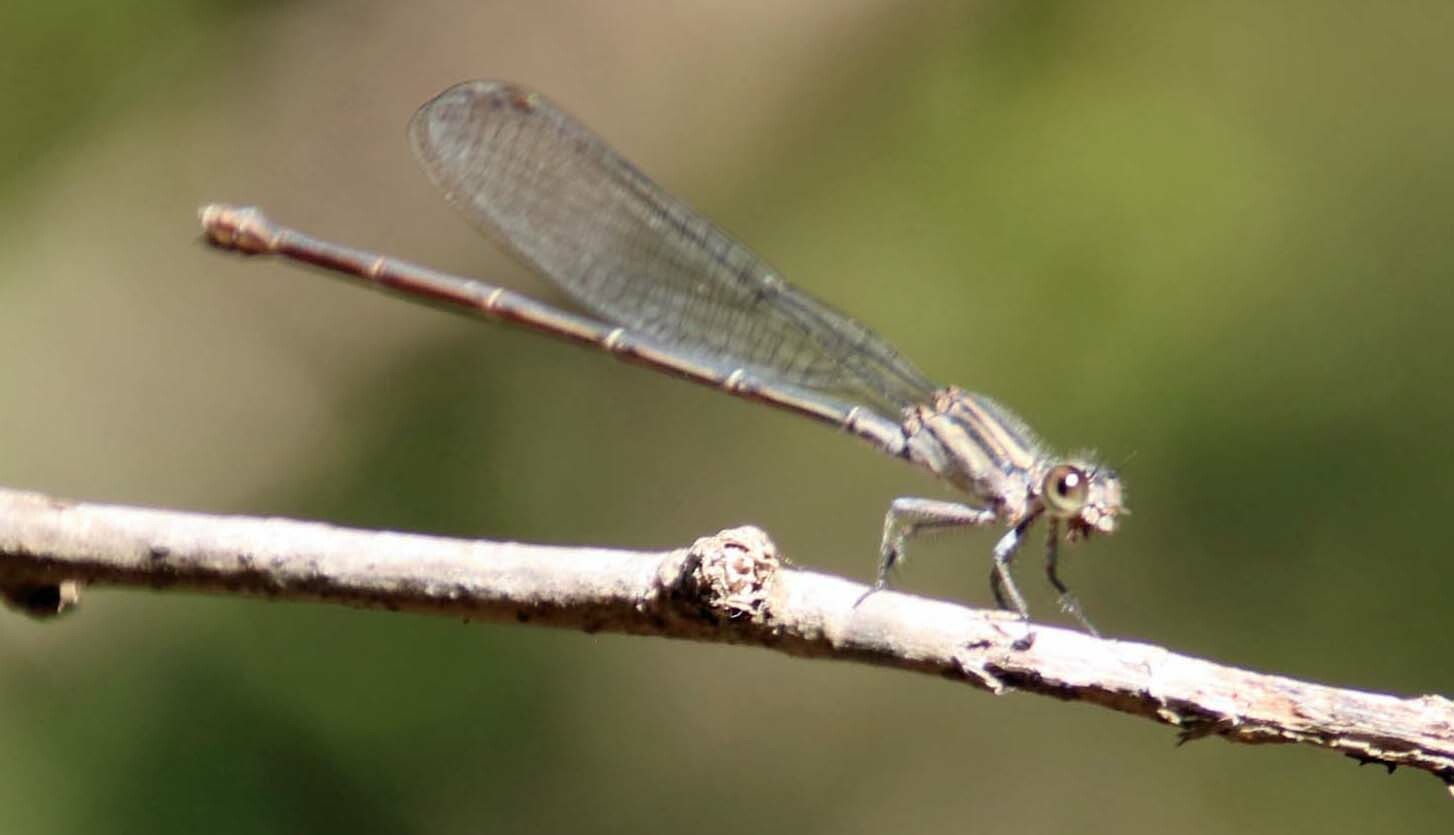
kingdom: Animalia
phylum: Arthropoda
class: Insecta
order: Odonata
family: Coenagrionidae
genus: Argia
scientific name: Argia translata
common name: Dusky dancer
